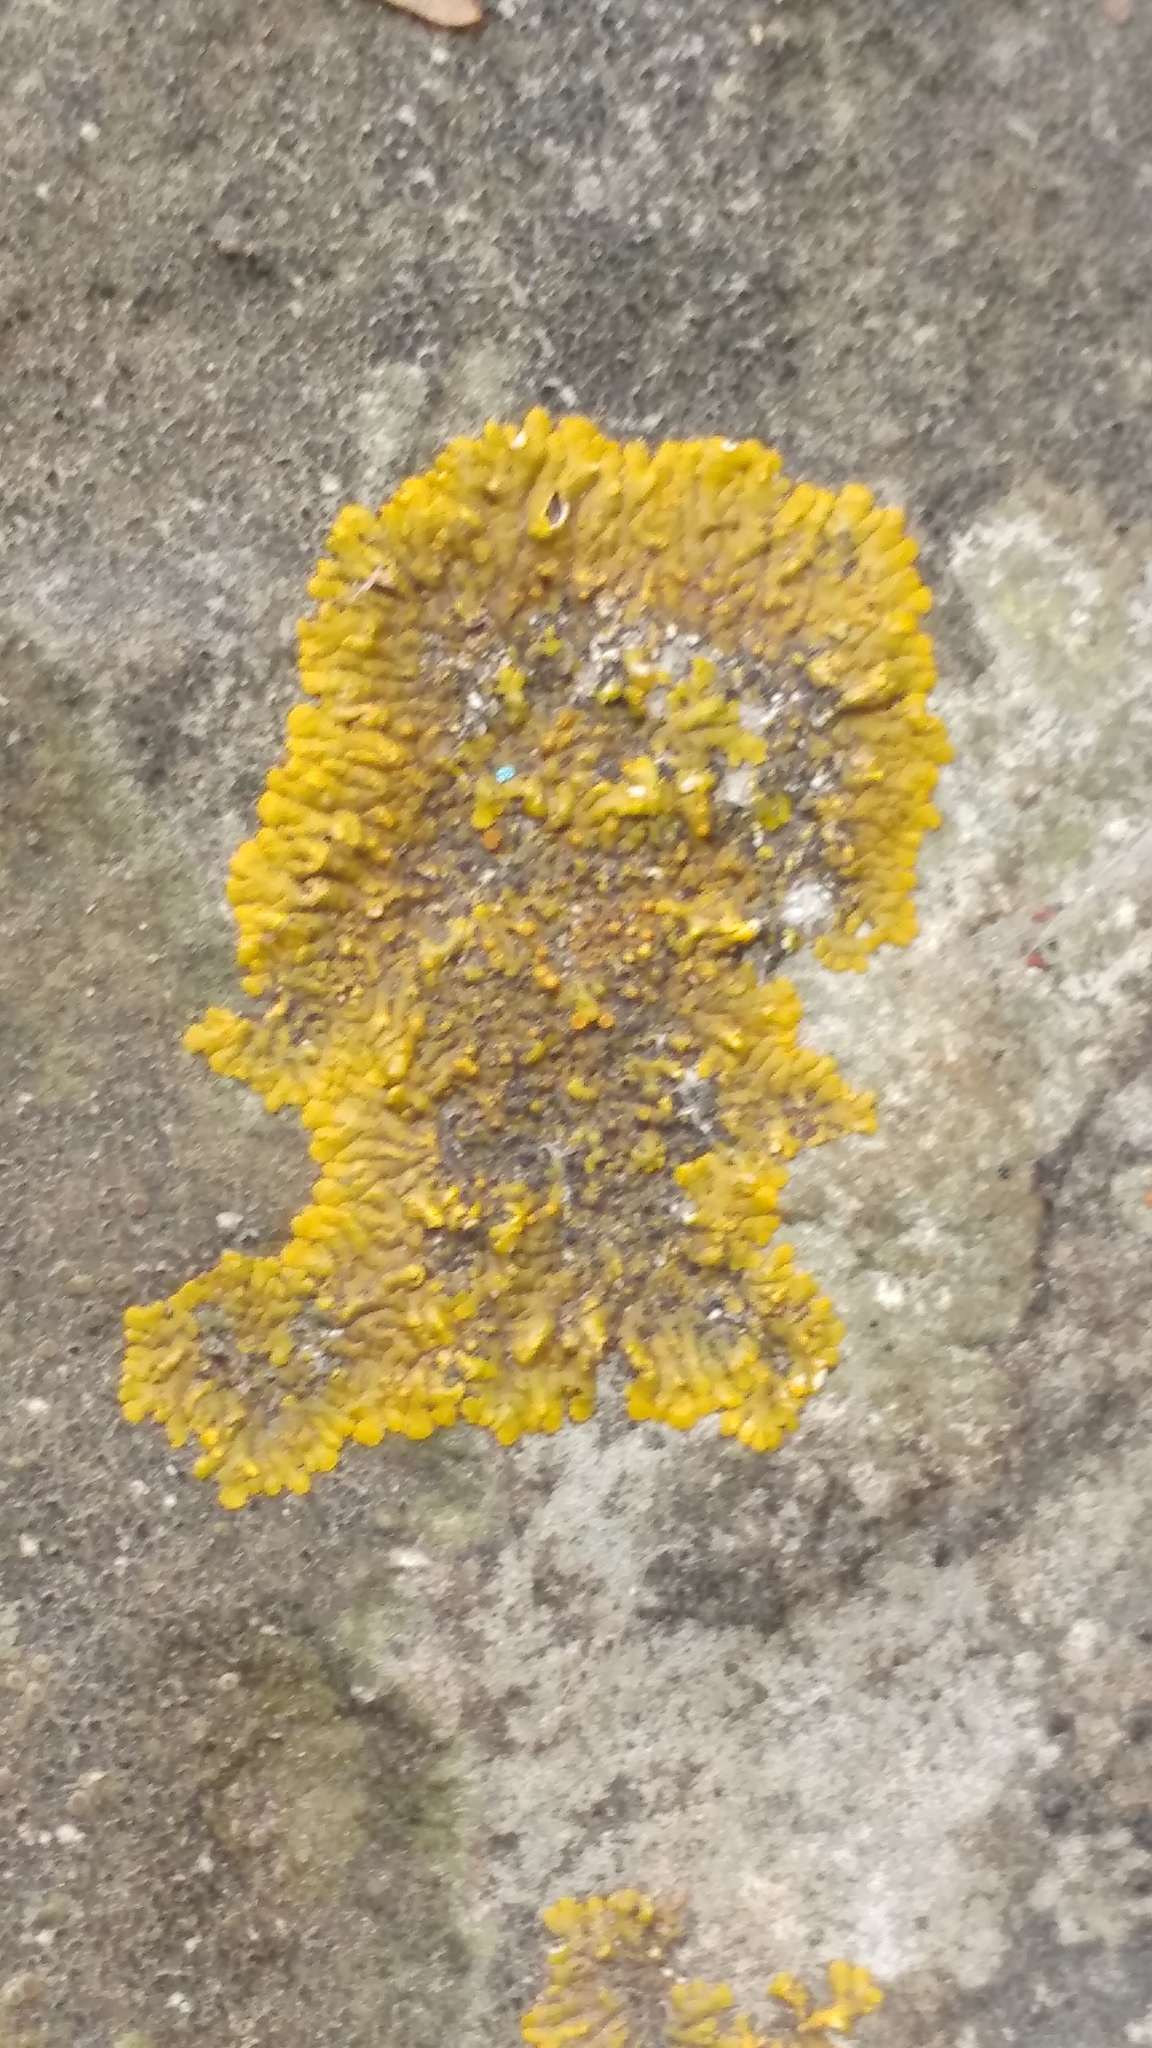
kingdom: Fungi
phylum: Ascomycota
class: Lecanoromycetes
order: Teloschistales
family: Teloschistaceae
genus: Calogaya
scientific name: Calogaya saxicola
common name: Rock jewel lichen
